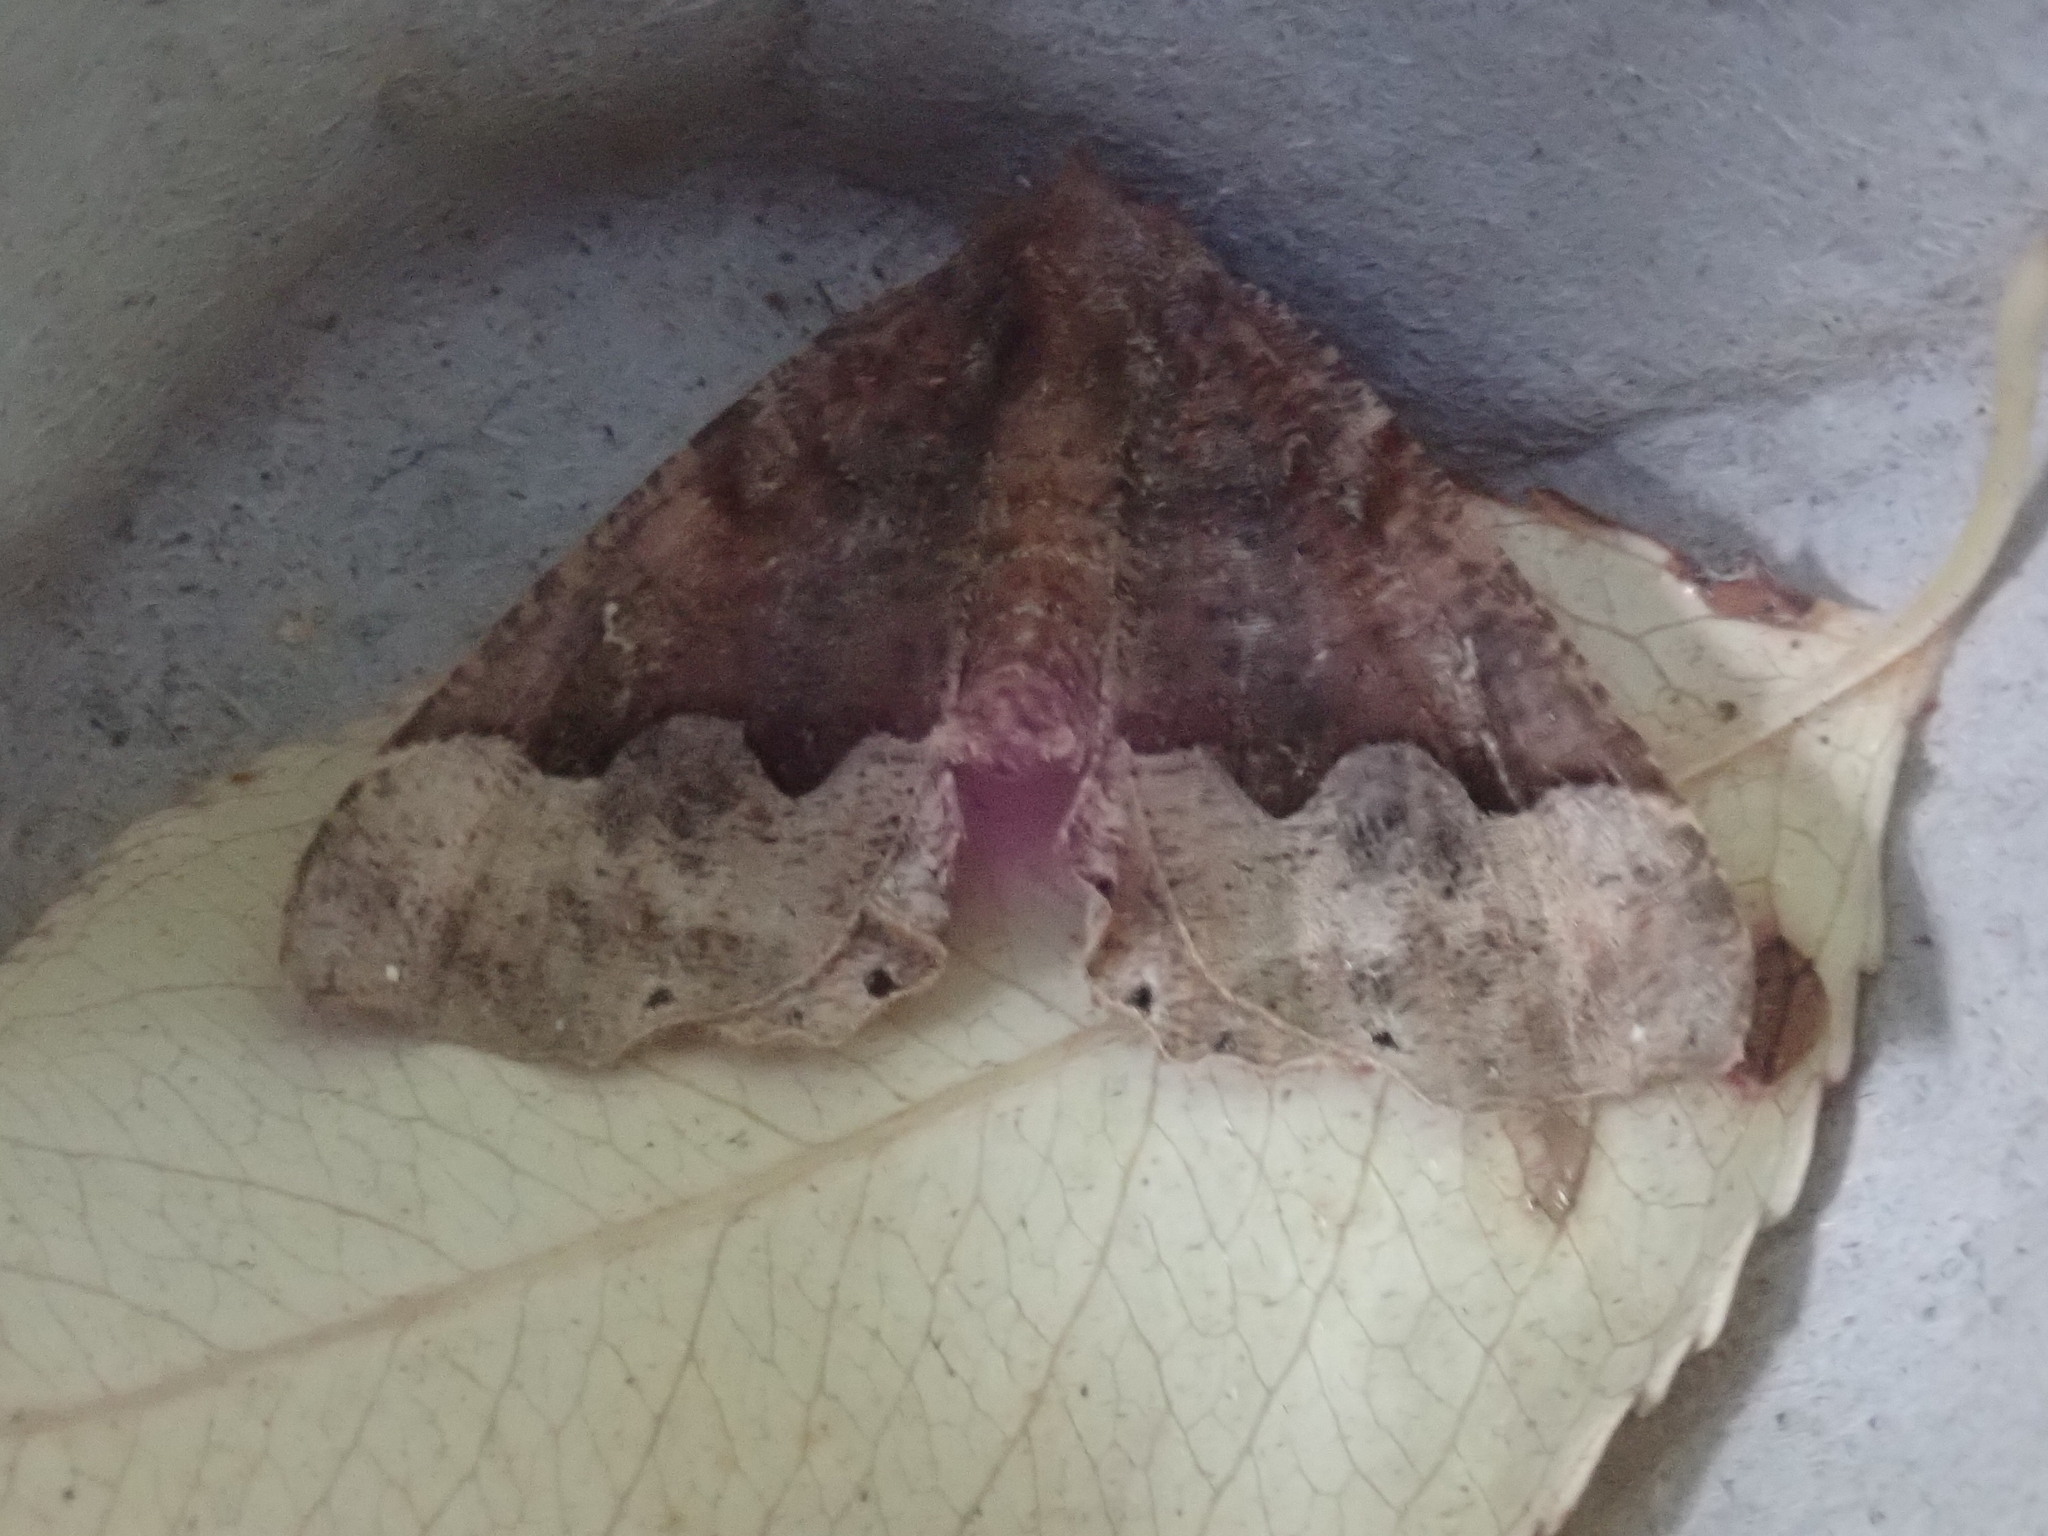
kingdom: Animalia
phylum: Arthropoda
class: Insecta
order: Lepidoptera
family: Geometridae
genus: Pero
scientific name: Pero morrisonaria
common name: Morrison's pero
